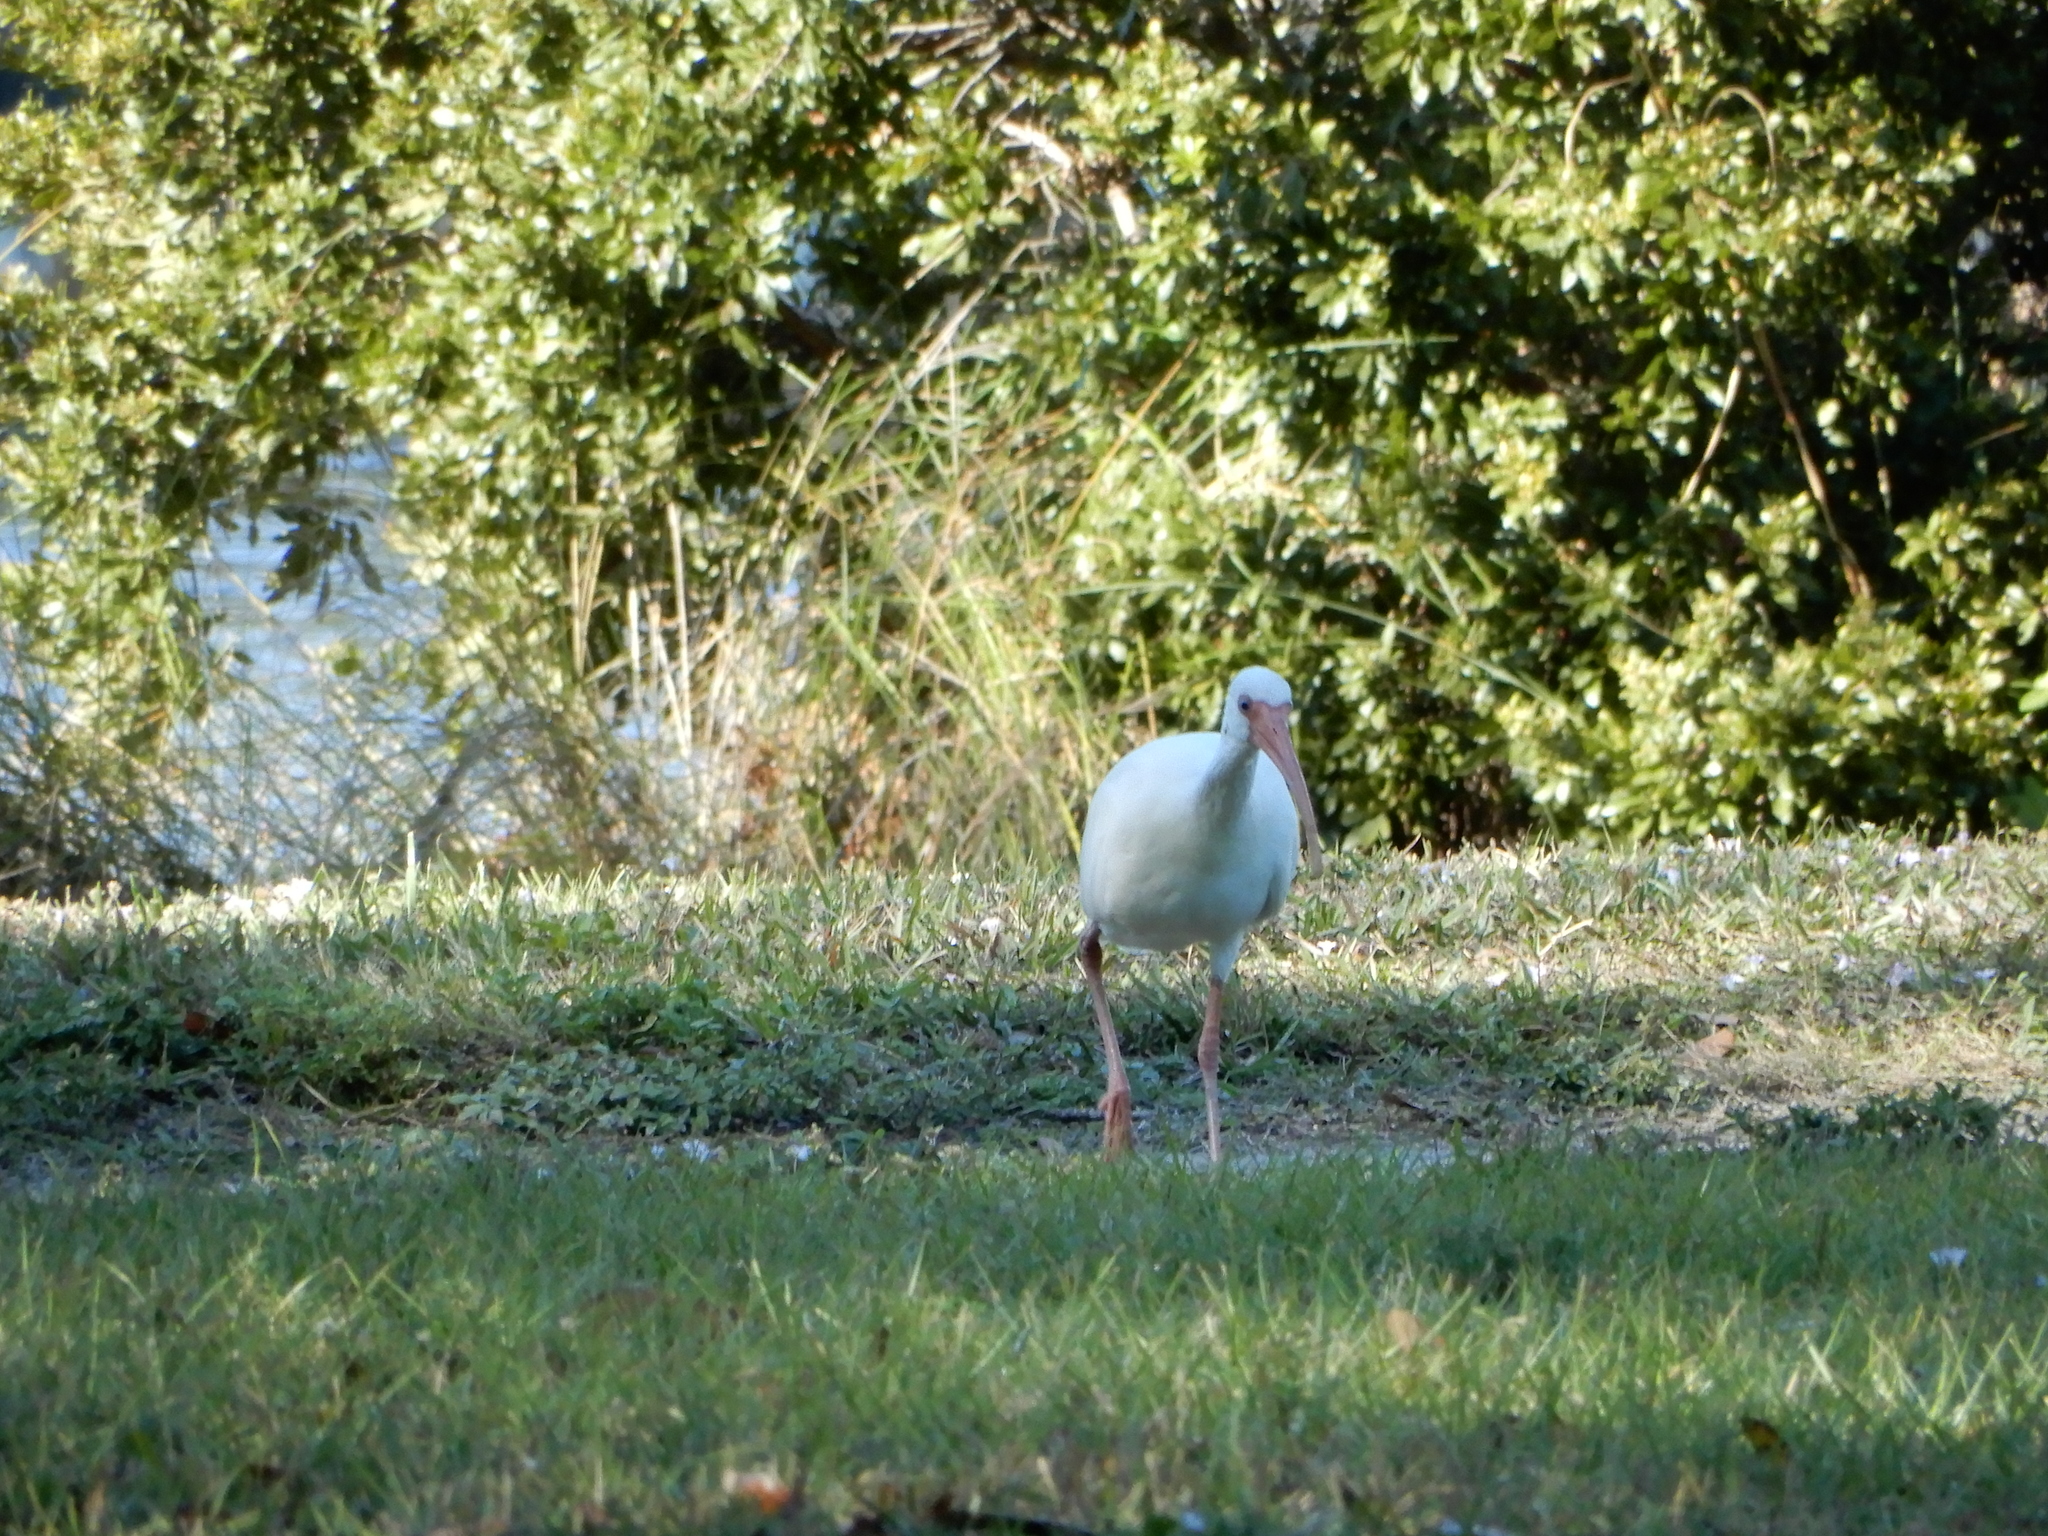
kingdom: Animalia
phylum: Chordata
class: Aves
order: Pelecaniformes
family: Threskiornithidae
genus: Eudocimus
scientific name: Eudocimus albus
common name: White ibis
